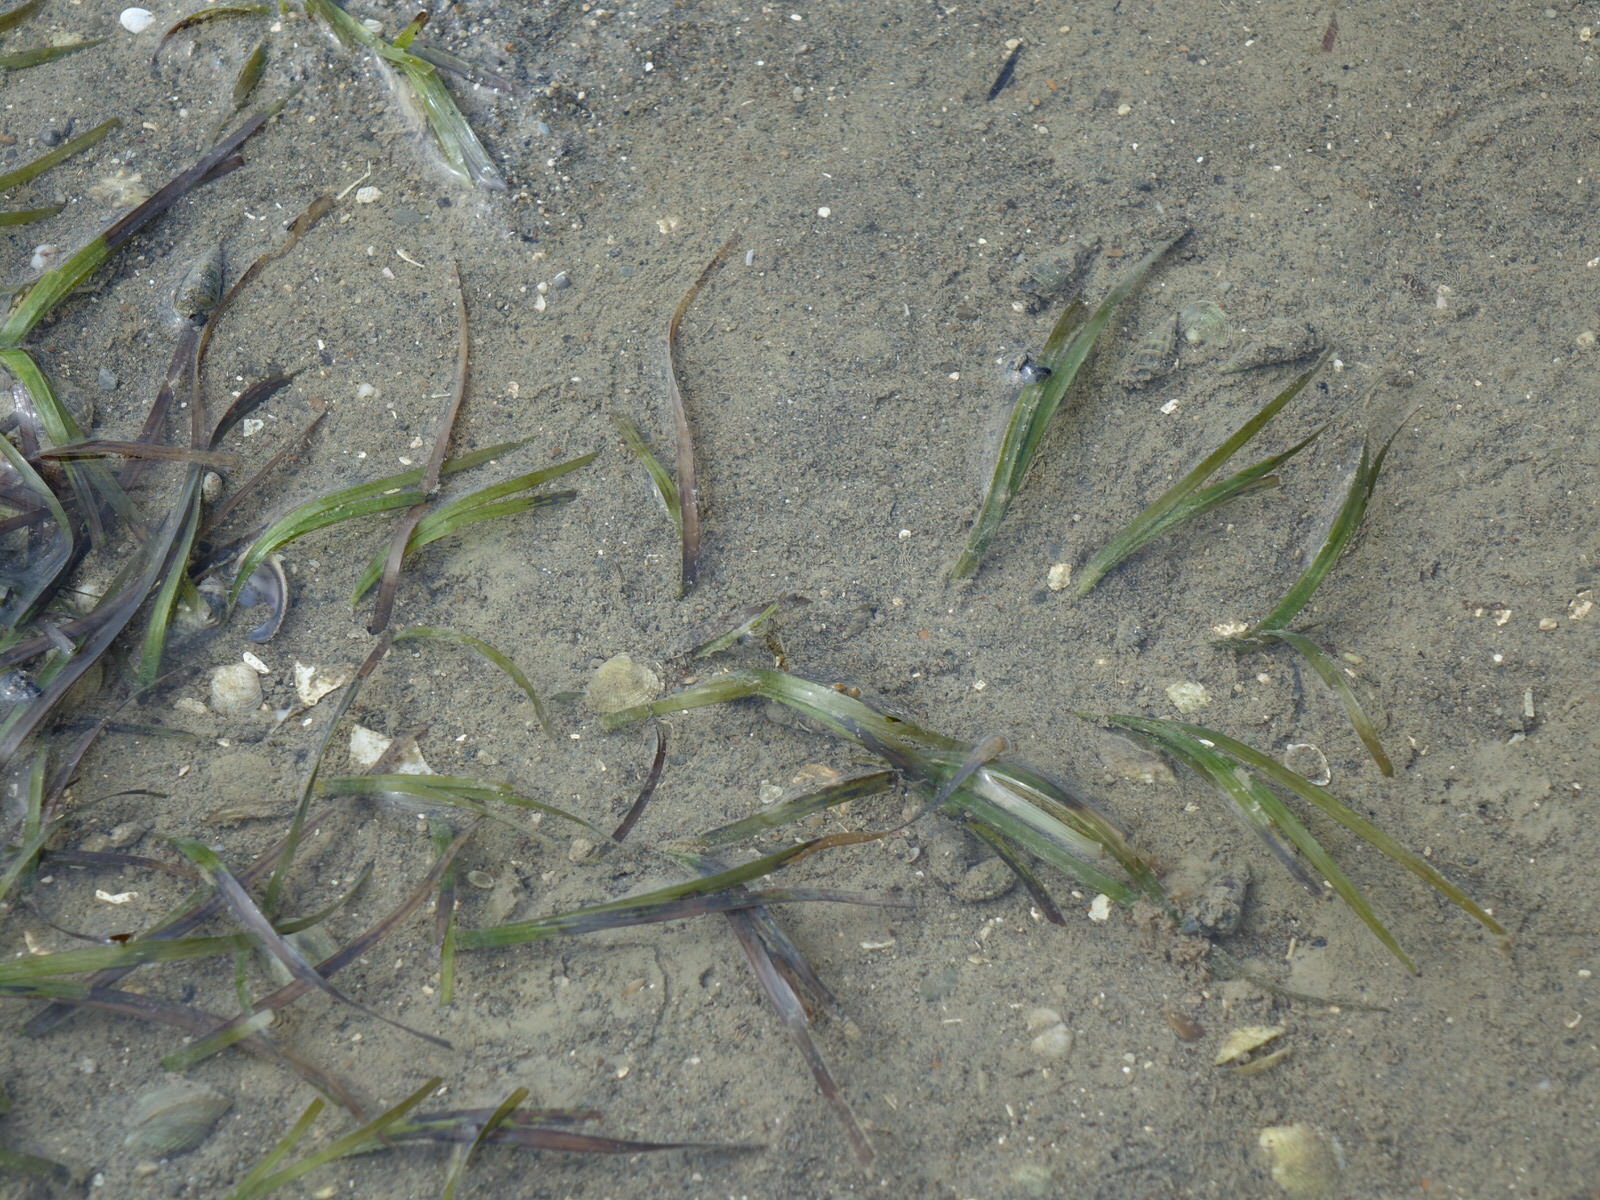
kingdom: Plantae
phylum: Tracheophyta
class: Liliopsida
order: Alismatales
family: Zosteraceae
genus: Zostera
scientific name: Zostera novazelandica
